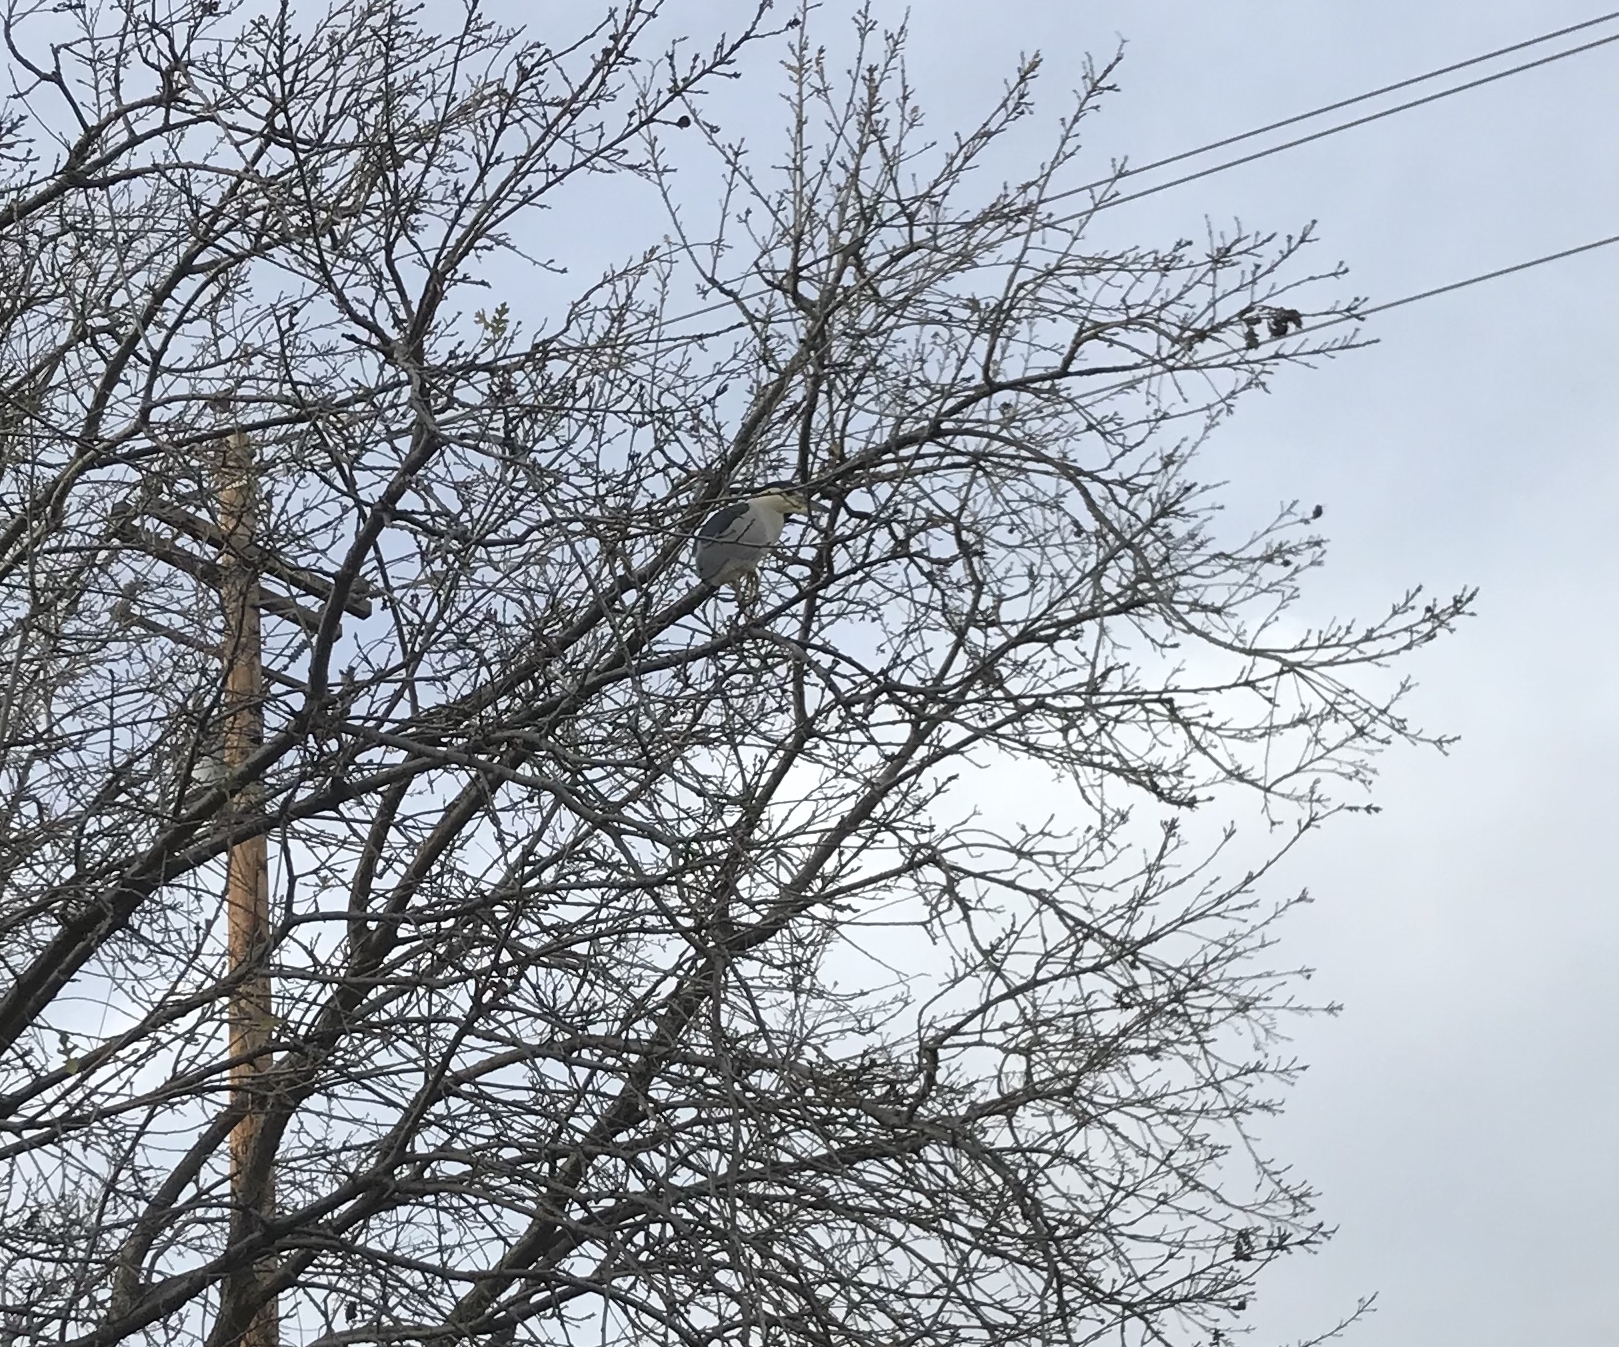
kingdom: Animalia
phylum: Chordata
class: Aves
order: Pelecaniformes
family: Ardeidae
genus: Nycticorax
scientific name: Nycticorax nycticorax
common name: Black-crowned night heron
